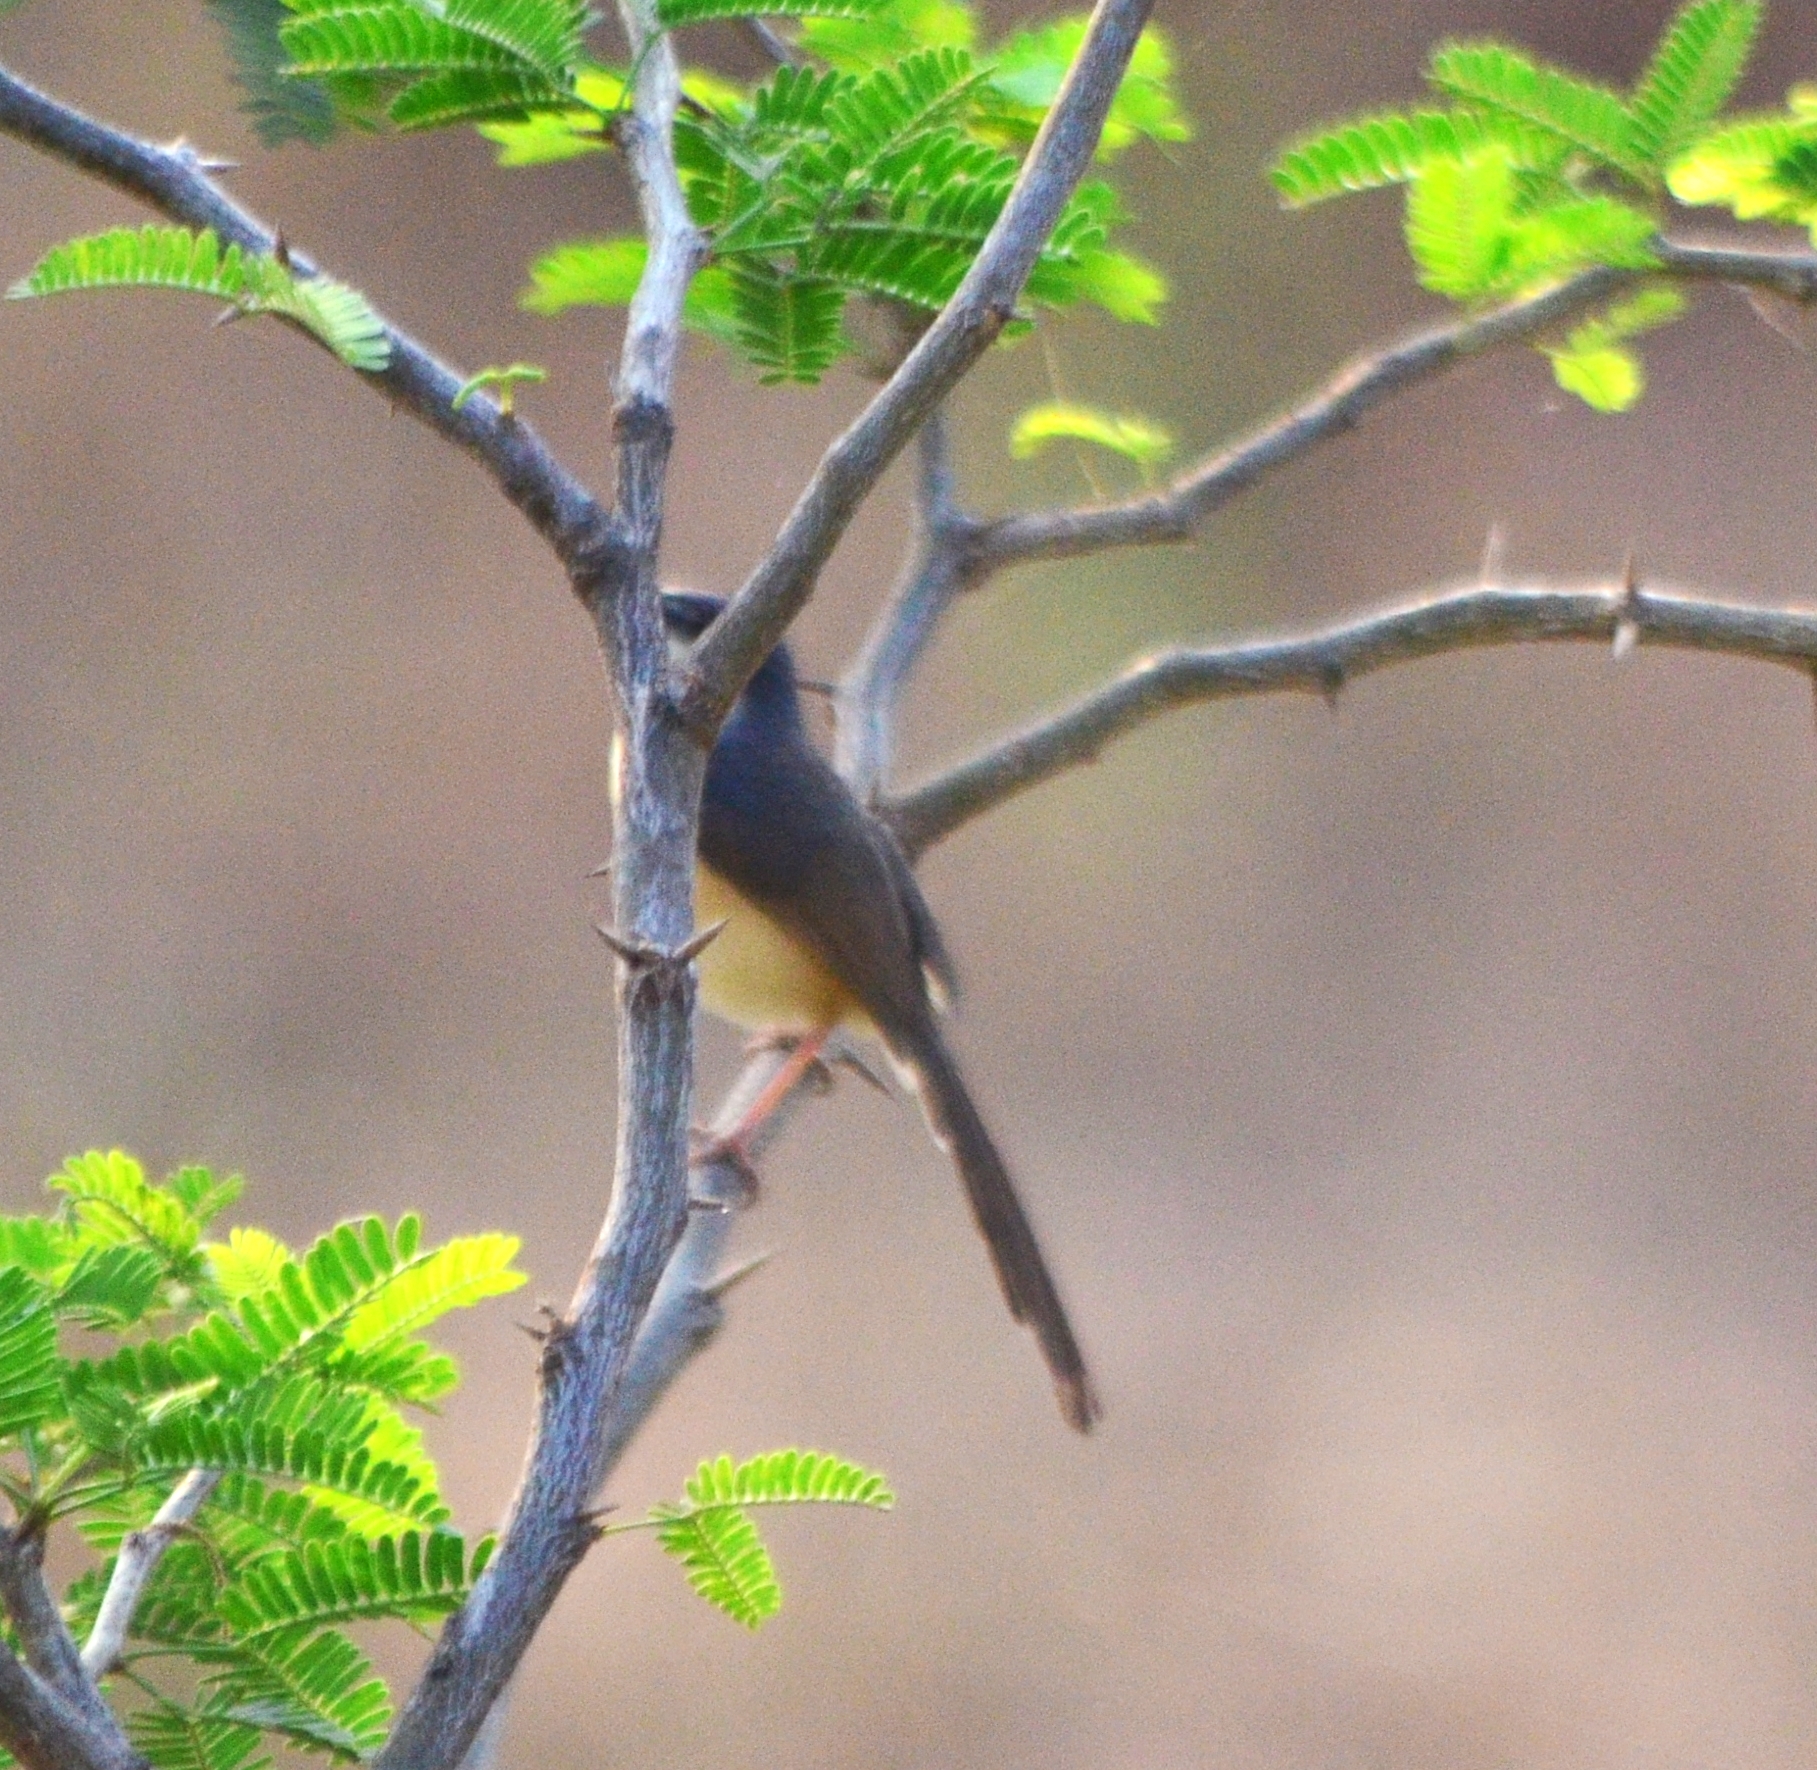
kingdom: Animalia
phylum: Chordata
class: Aves
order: Passeriformes
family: Cisticolidae
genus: Prinia
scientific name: Prinia socialis
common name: Ashy prinia
